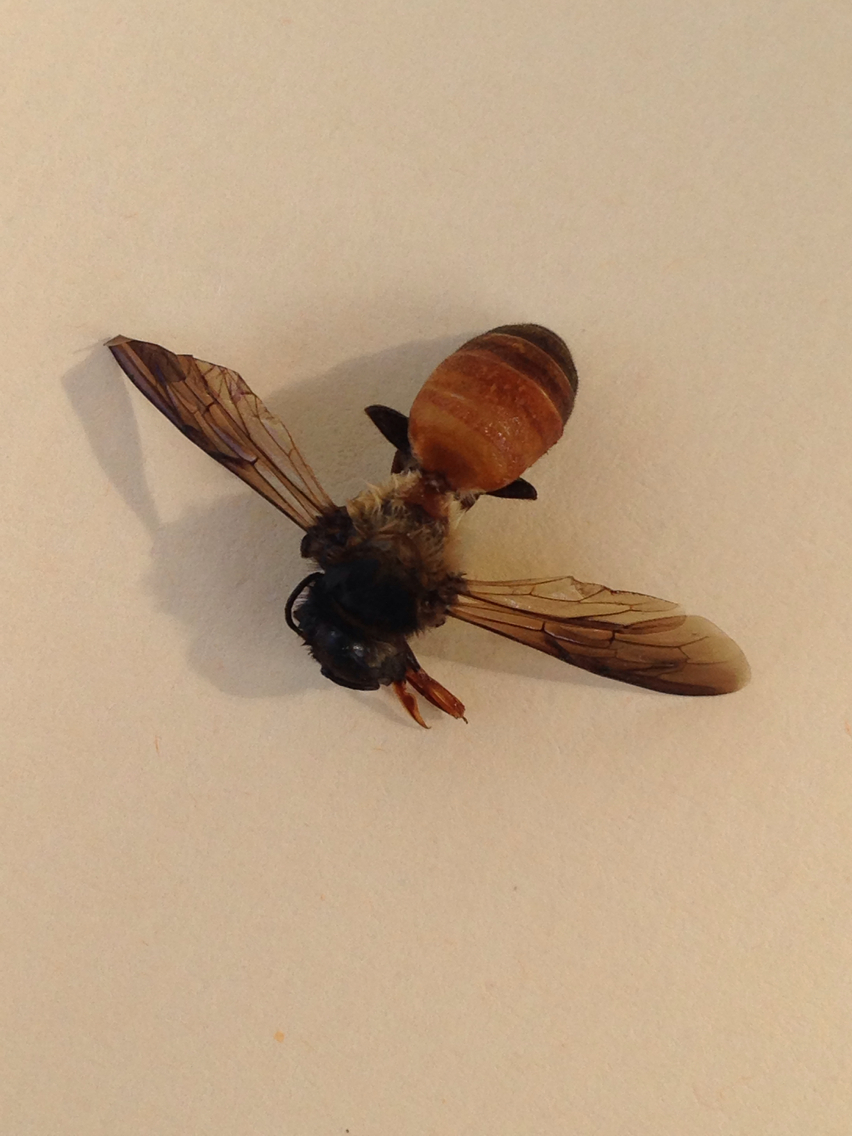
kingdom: Animalia
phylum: Arthropoda
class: Insecta
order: Hymenoptera
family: Apidae
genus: Apis
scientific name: Apis dorsata
